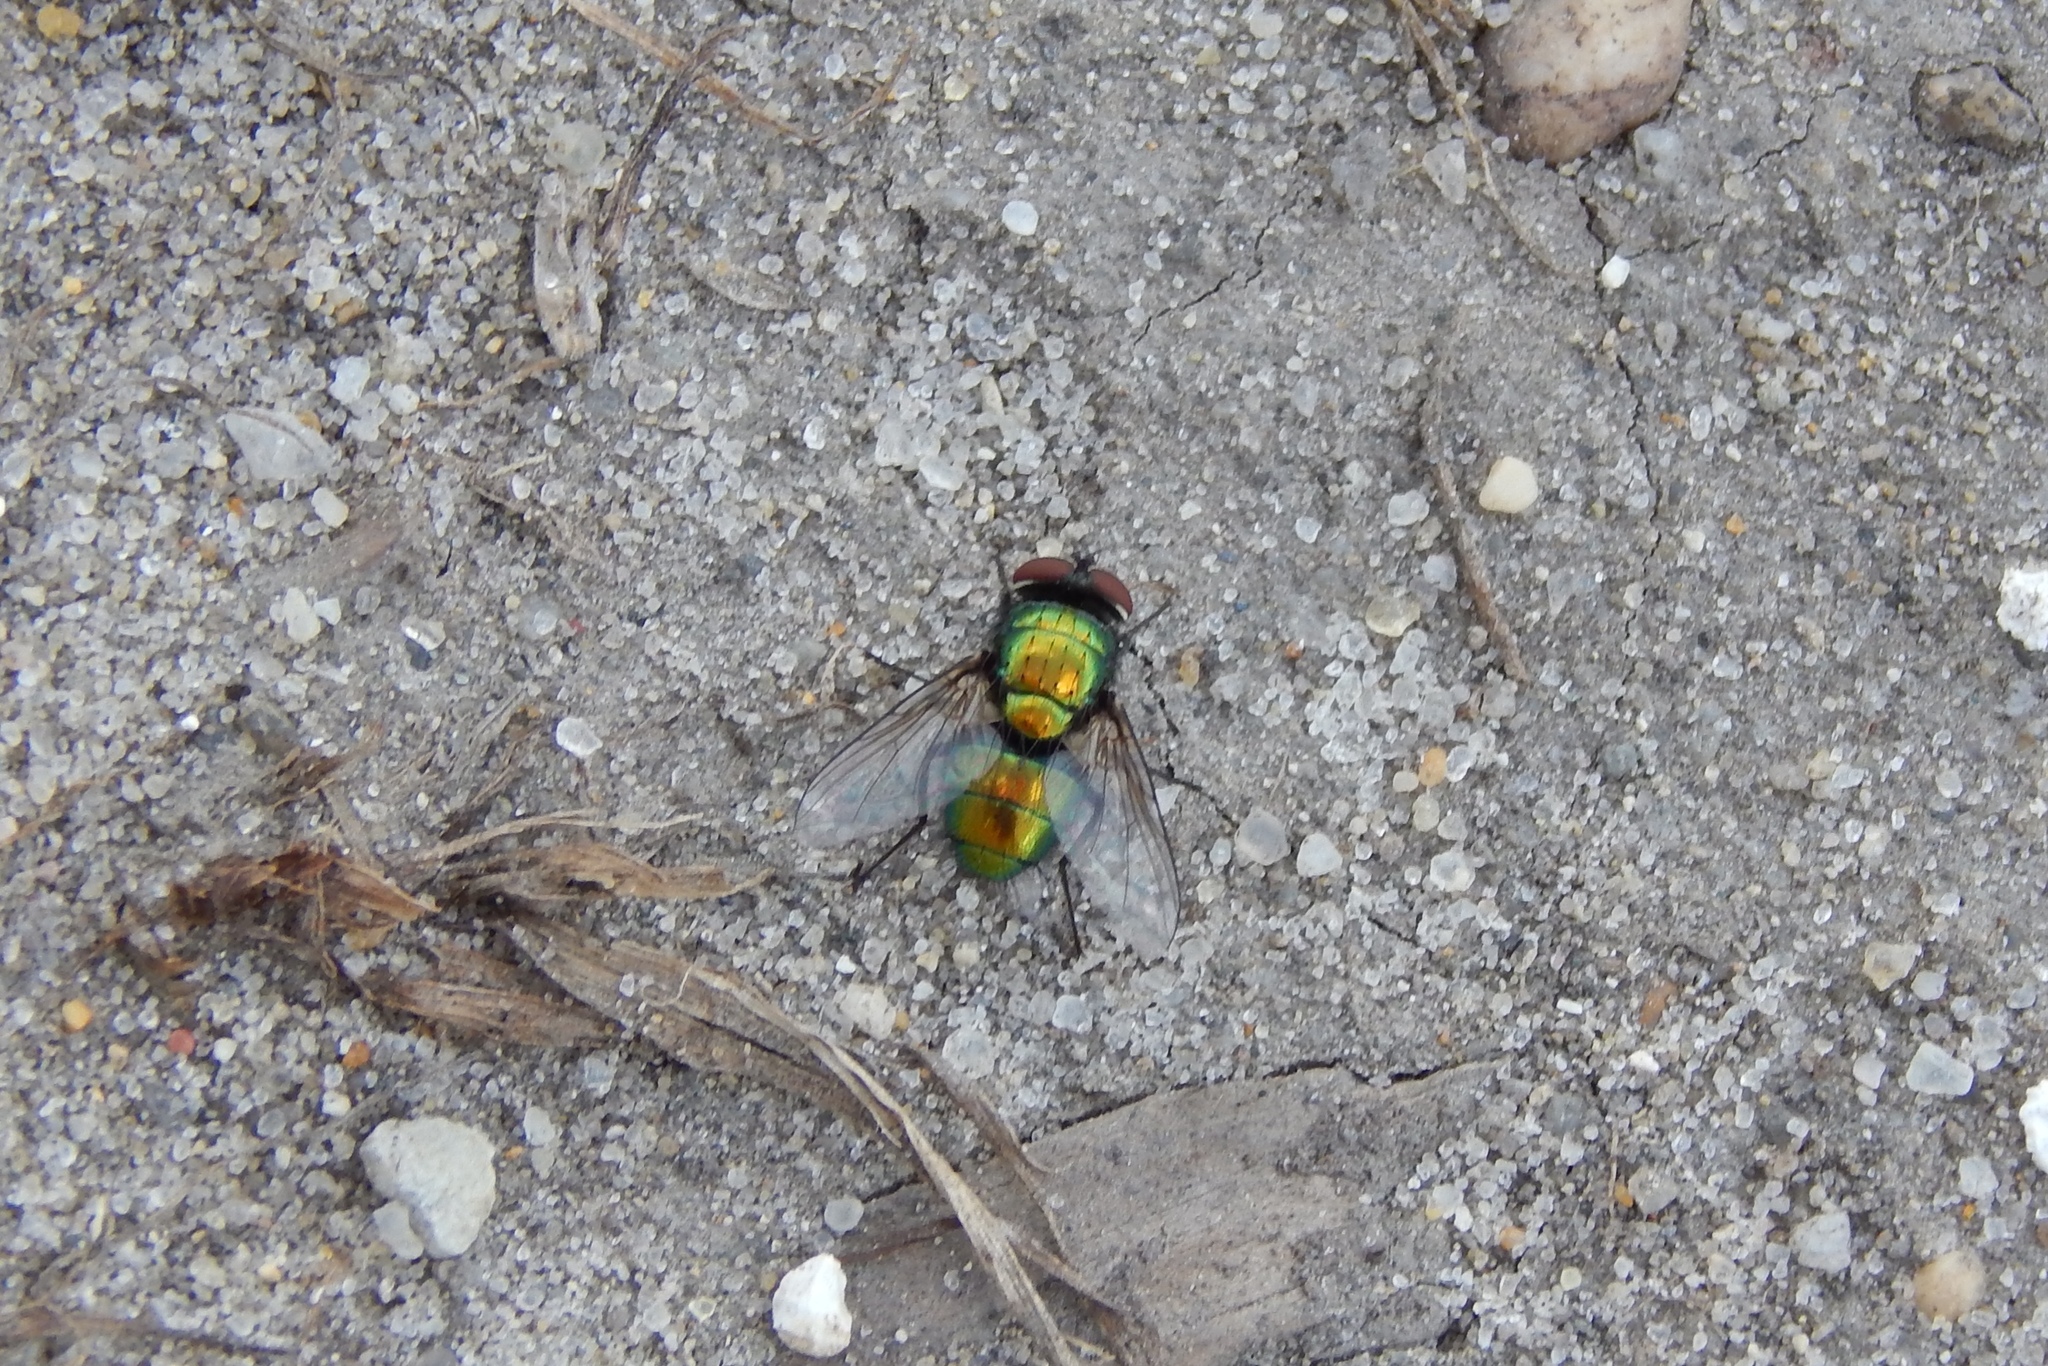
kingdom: Animalia
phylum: Arthropoda
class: Insecta
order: Diptera
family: Calliphoridae
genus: Lucilia
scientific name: Lucilia
